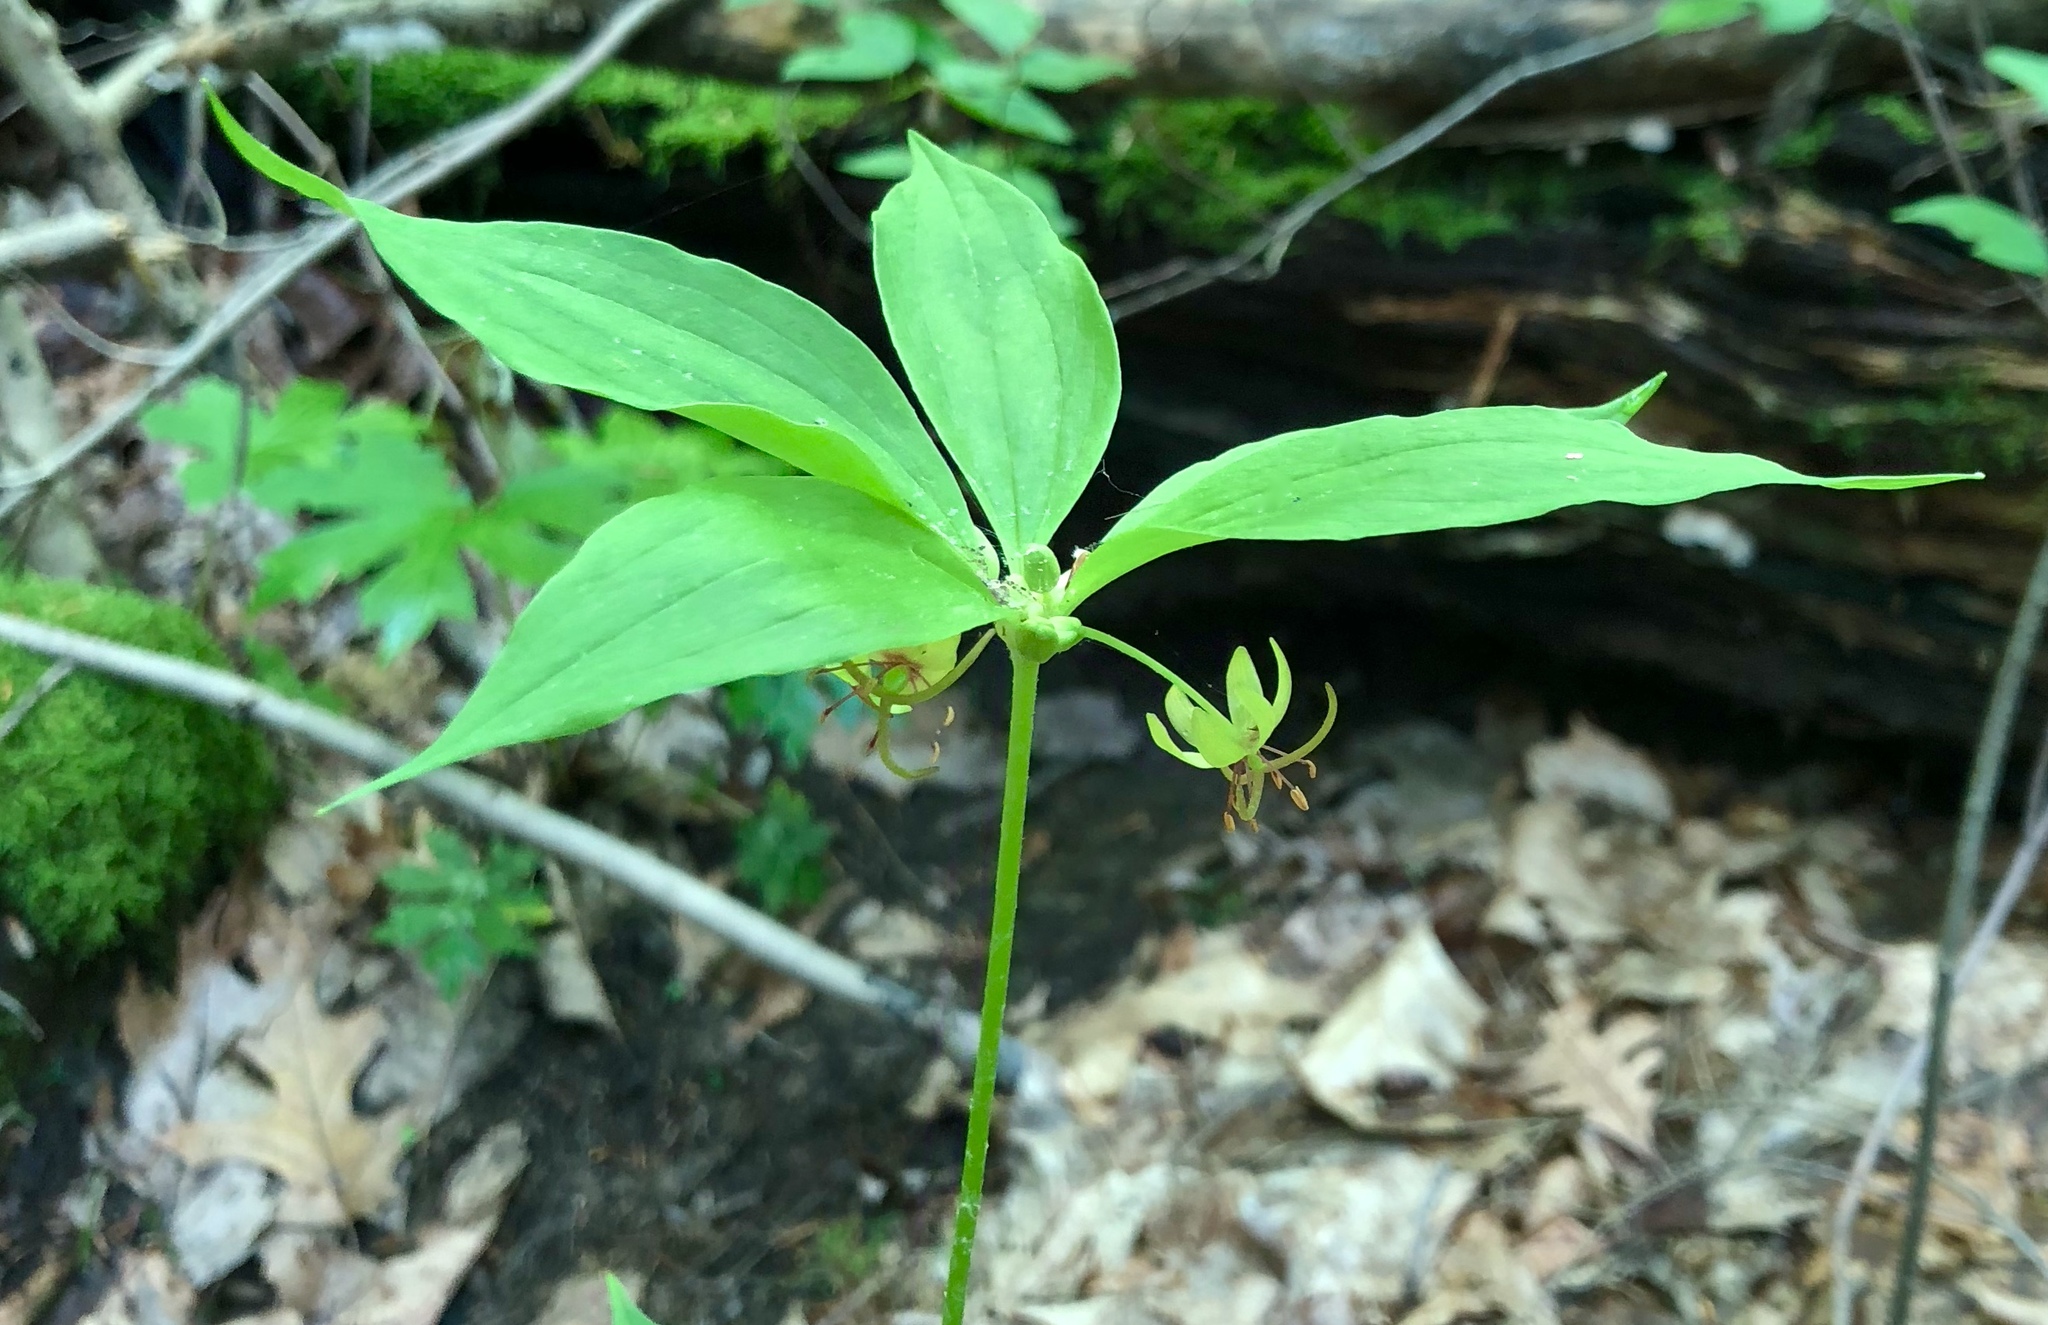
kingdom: Plantae
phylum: Tracheophyta
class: Liliopsida
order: Liliales
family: Liliaceae
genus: Medeola
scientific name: Medeola virginiana
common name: Indian cucumber-root
